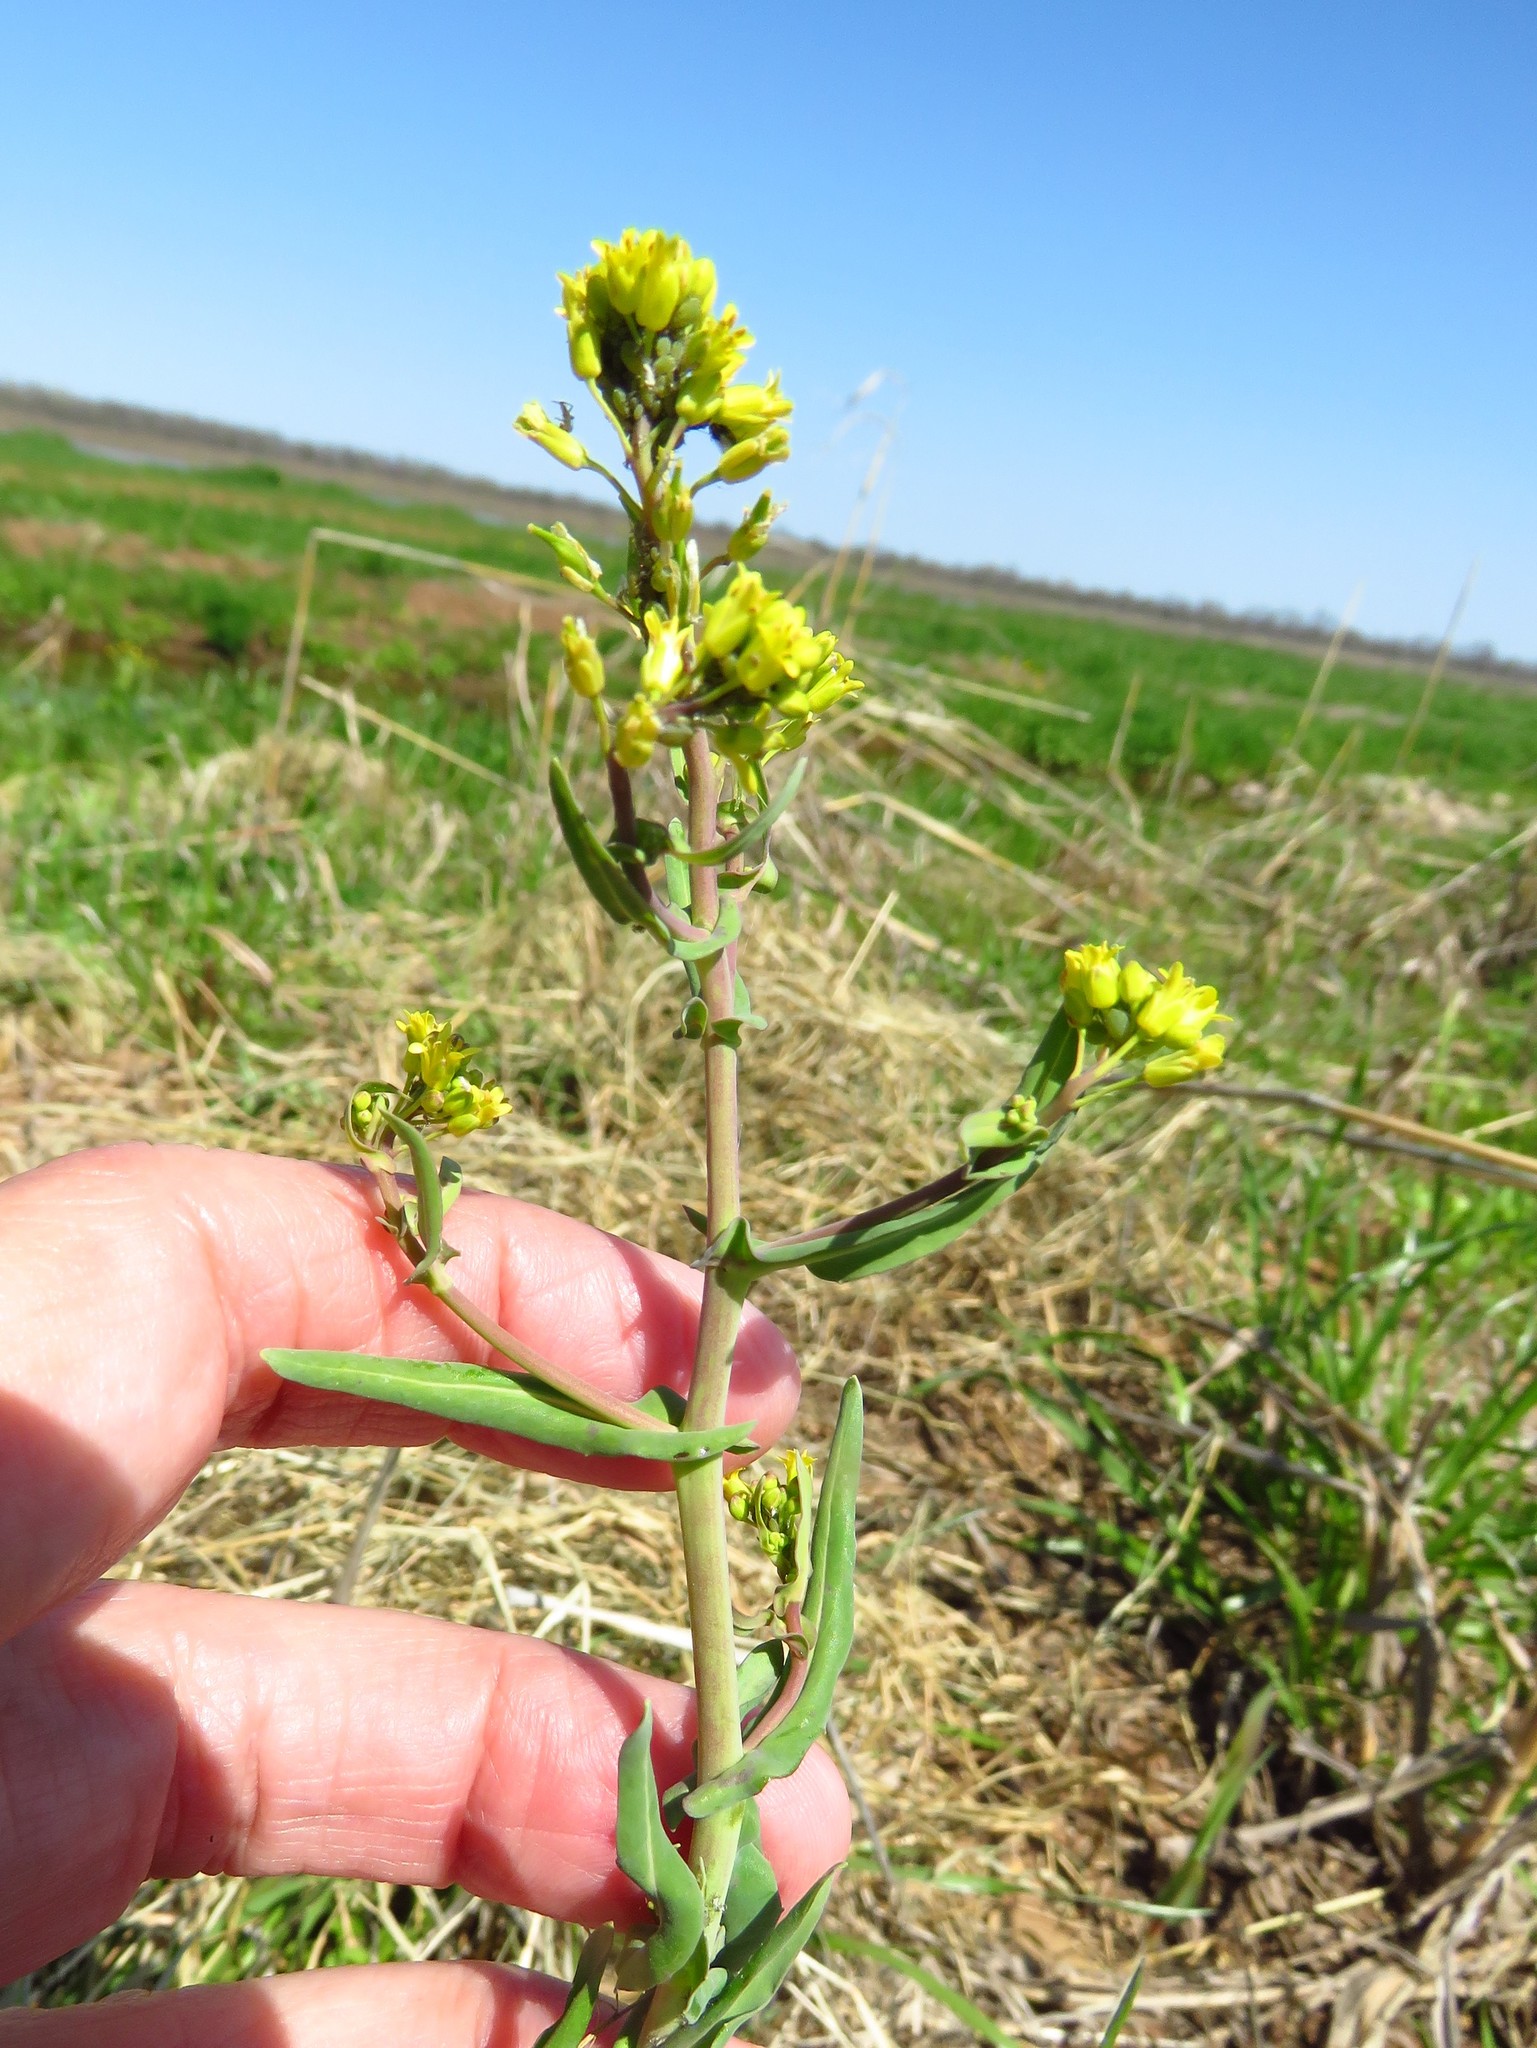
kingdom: Plantae
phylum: Tracheophyta
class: Magnoliopsida
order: Brassicales
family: Brassicaceae
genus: Myagrum
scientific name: Myagrum perfoliatum
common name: Mitre cress
